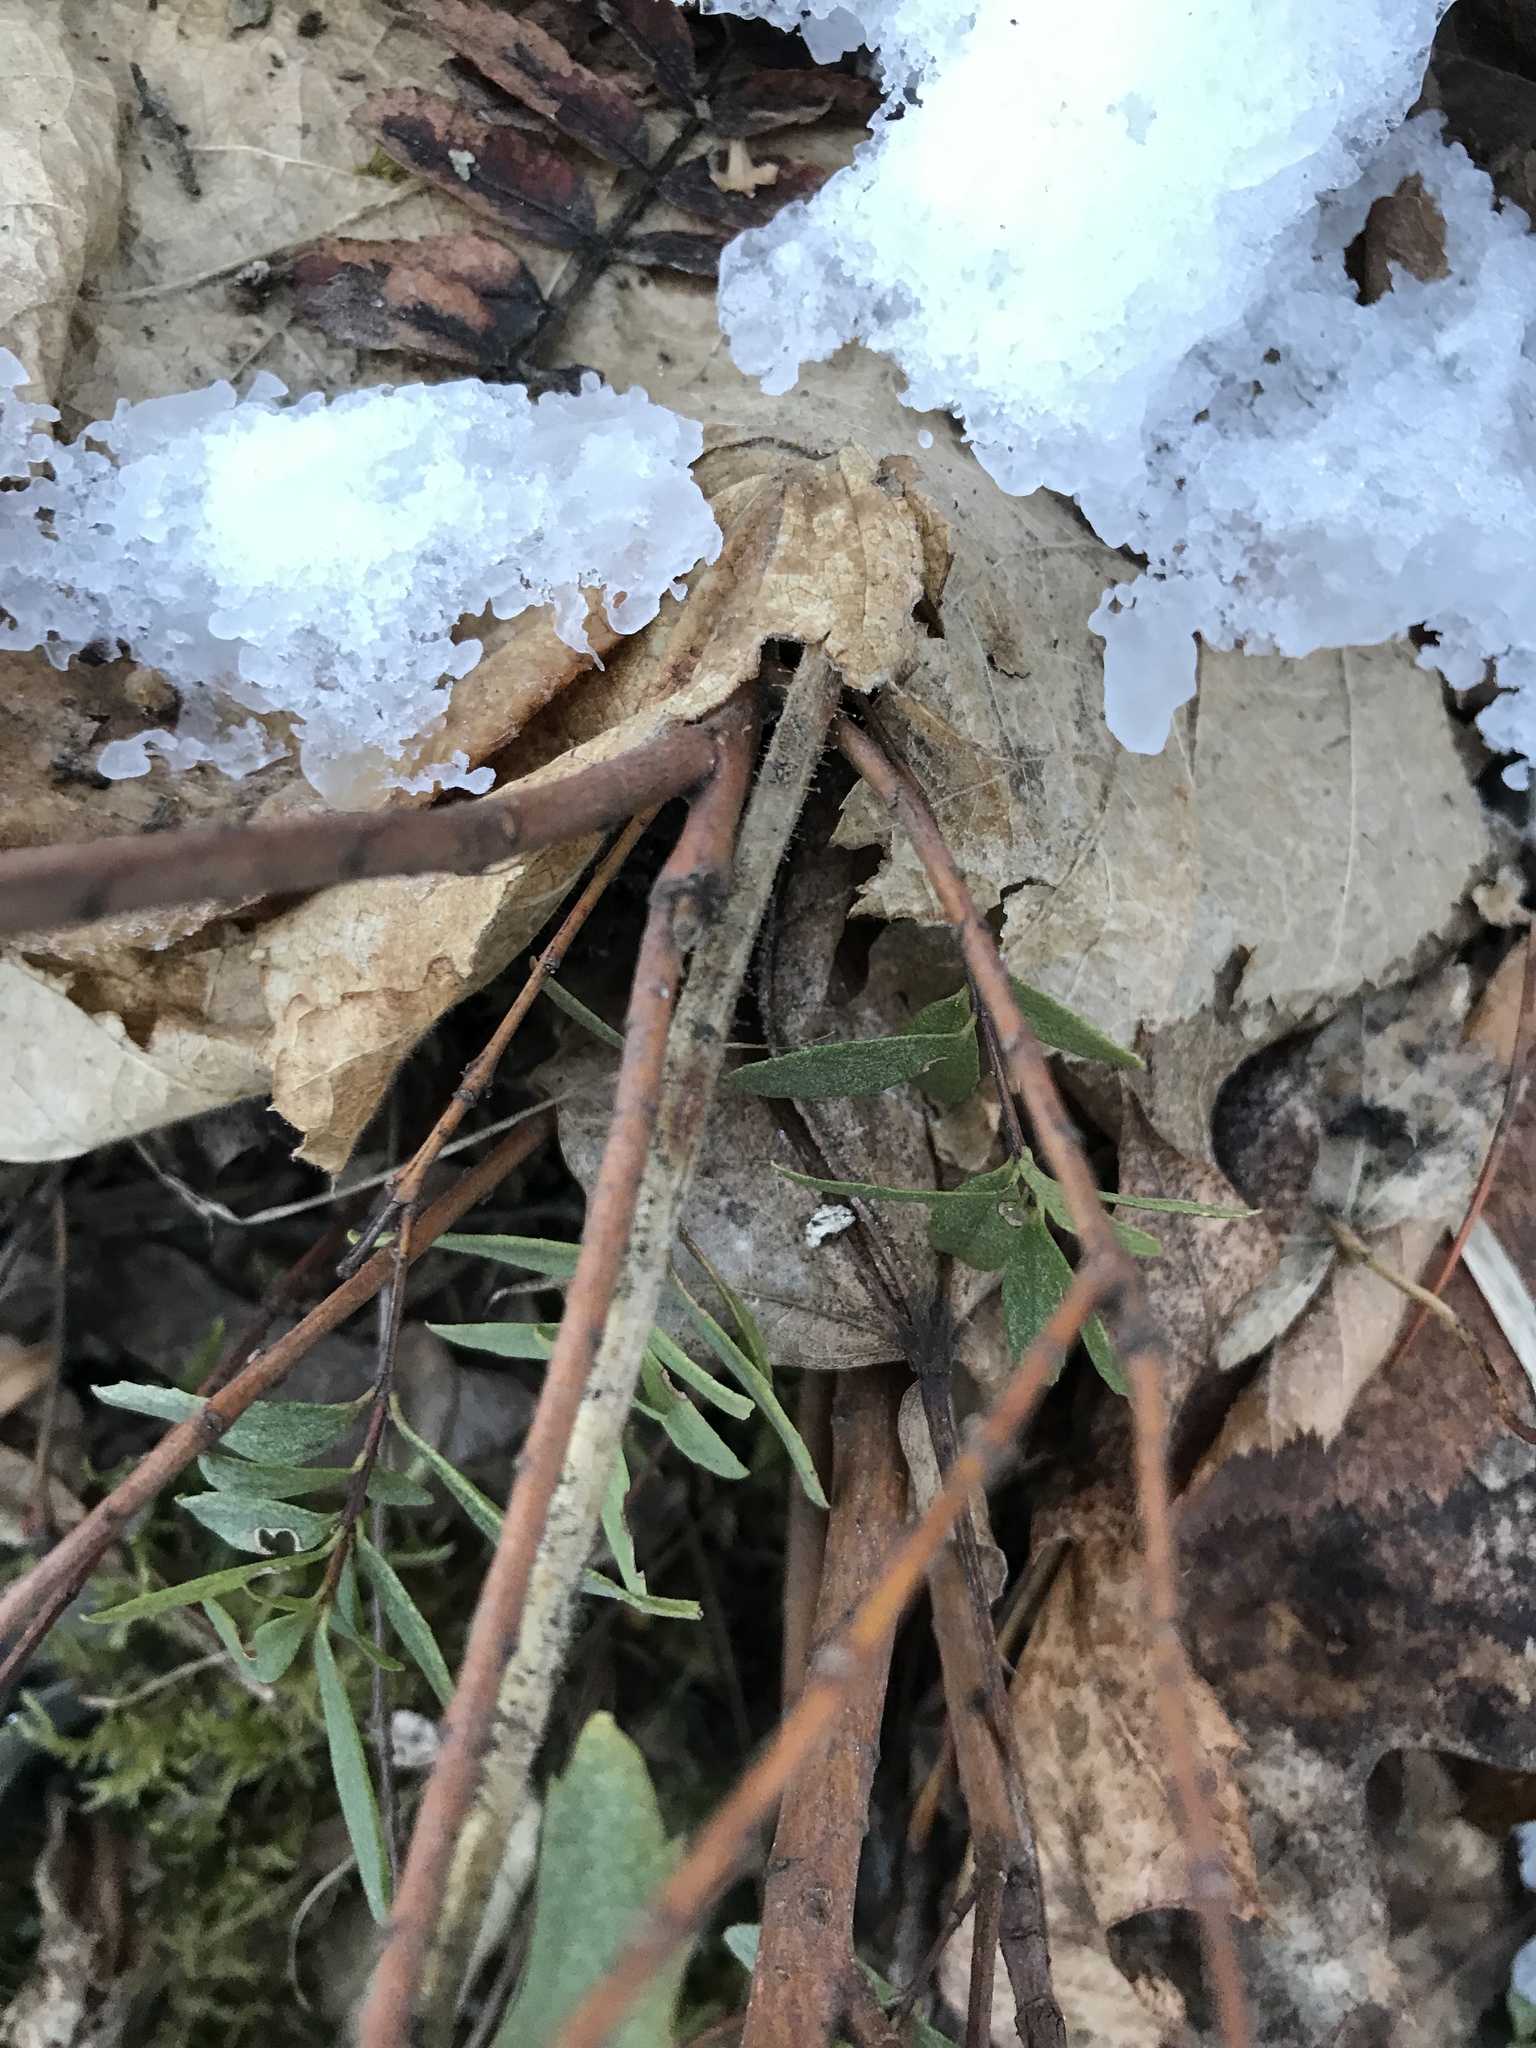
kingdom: Plantae
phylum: Tracheophyta
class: Magnoliopsida
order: Celastrales
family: Celastraceae
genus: Paxistima
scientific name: Paxistima myrsinites
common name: Mountain-lover
